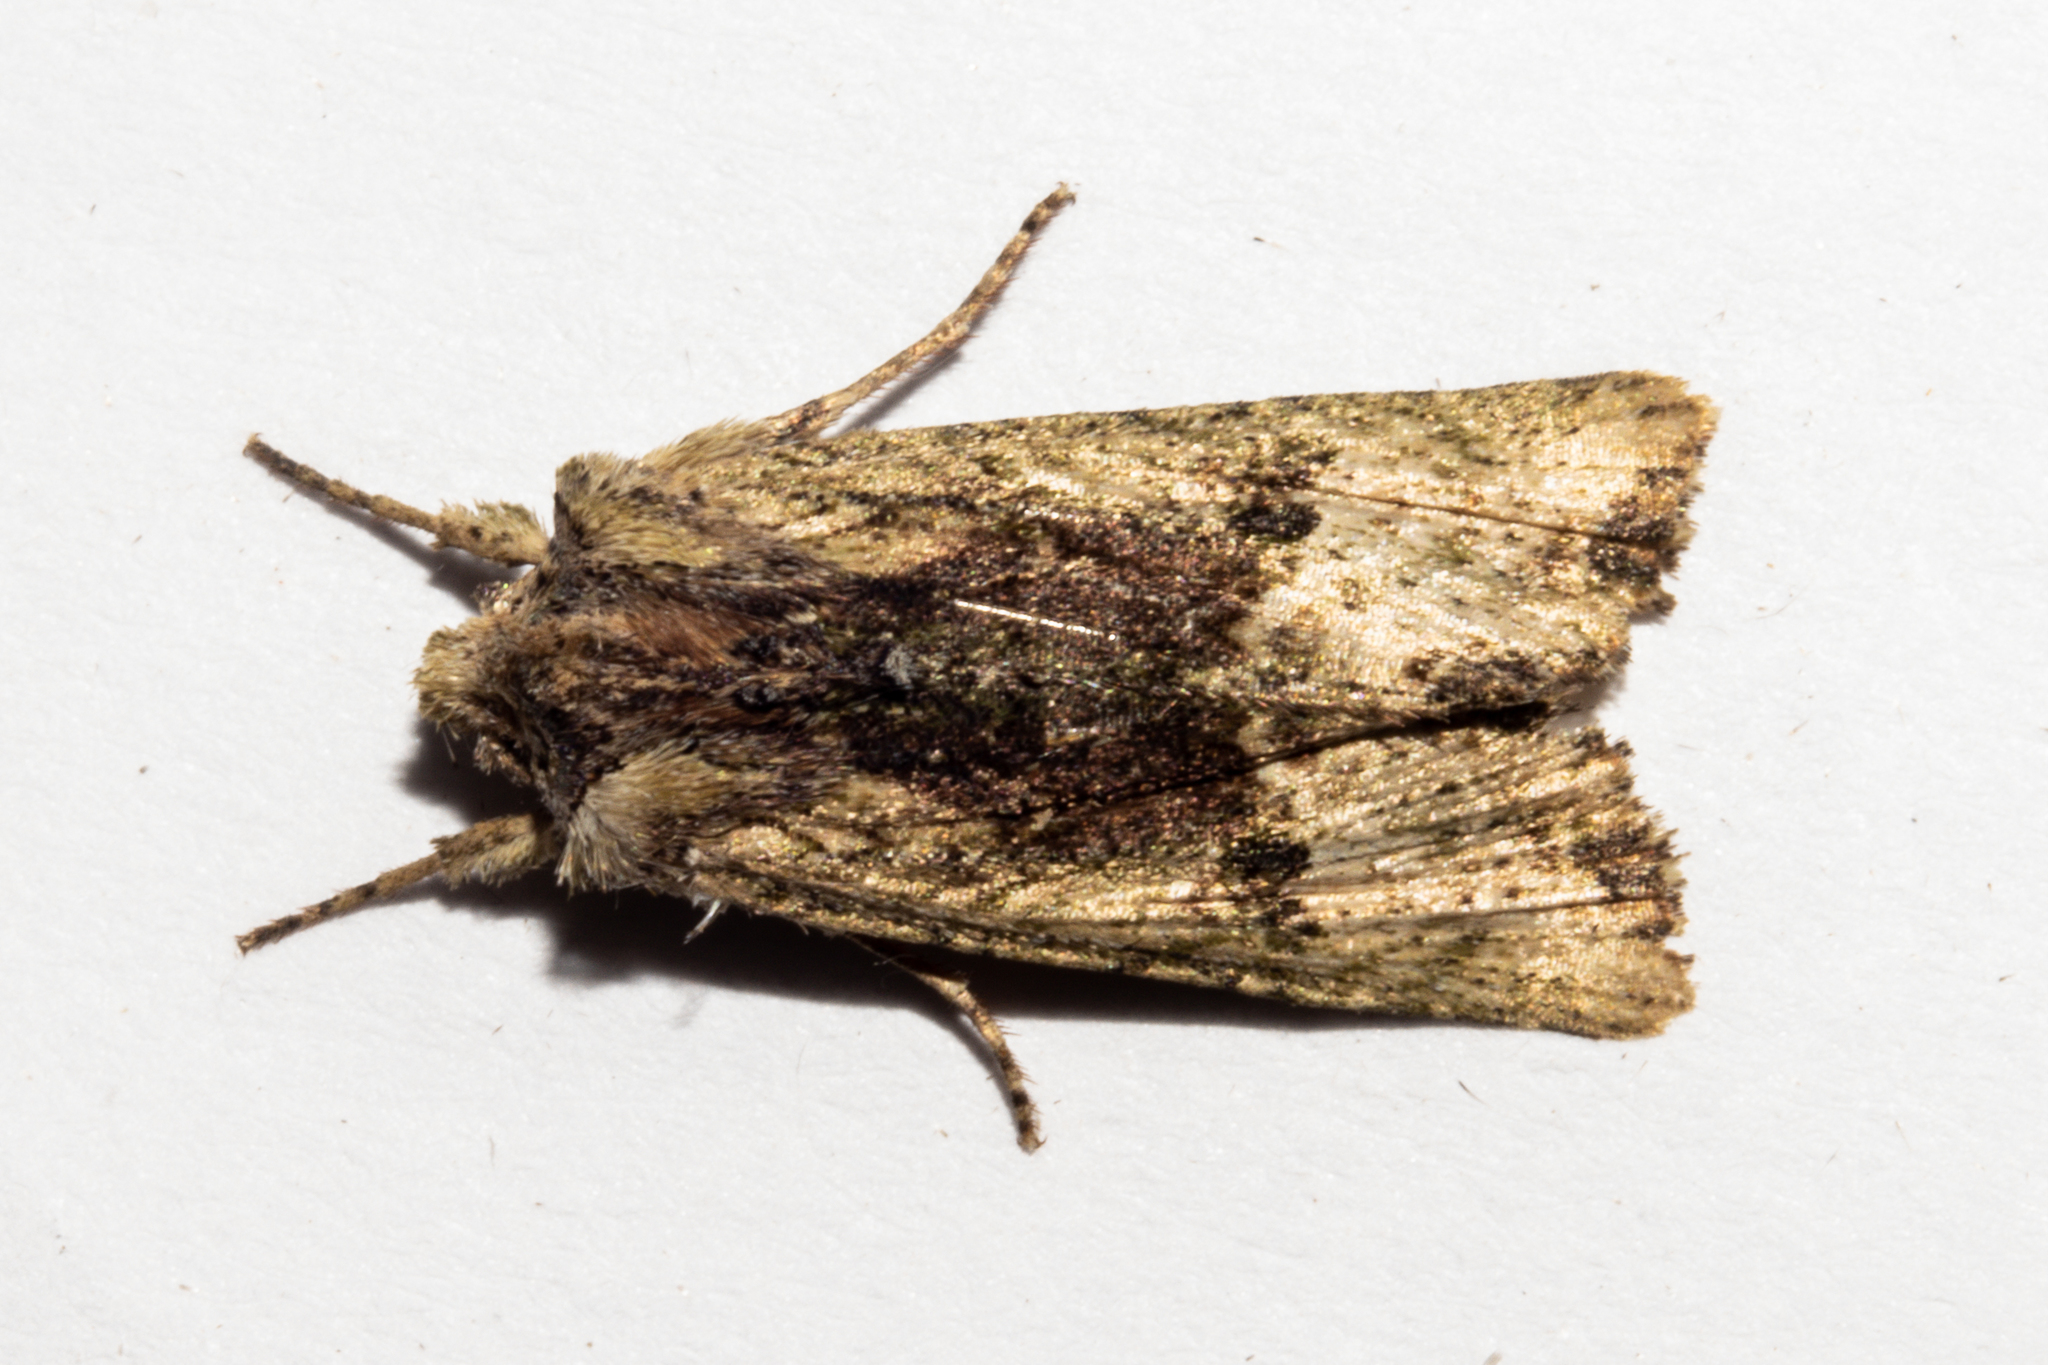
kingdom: Animalia
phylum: Arthropoda
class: Insecta
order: Lepidoptera
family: Noctuidae
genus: Meterana
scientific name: Meterana coeleno
